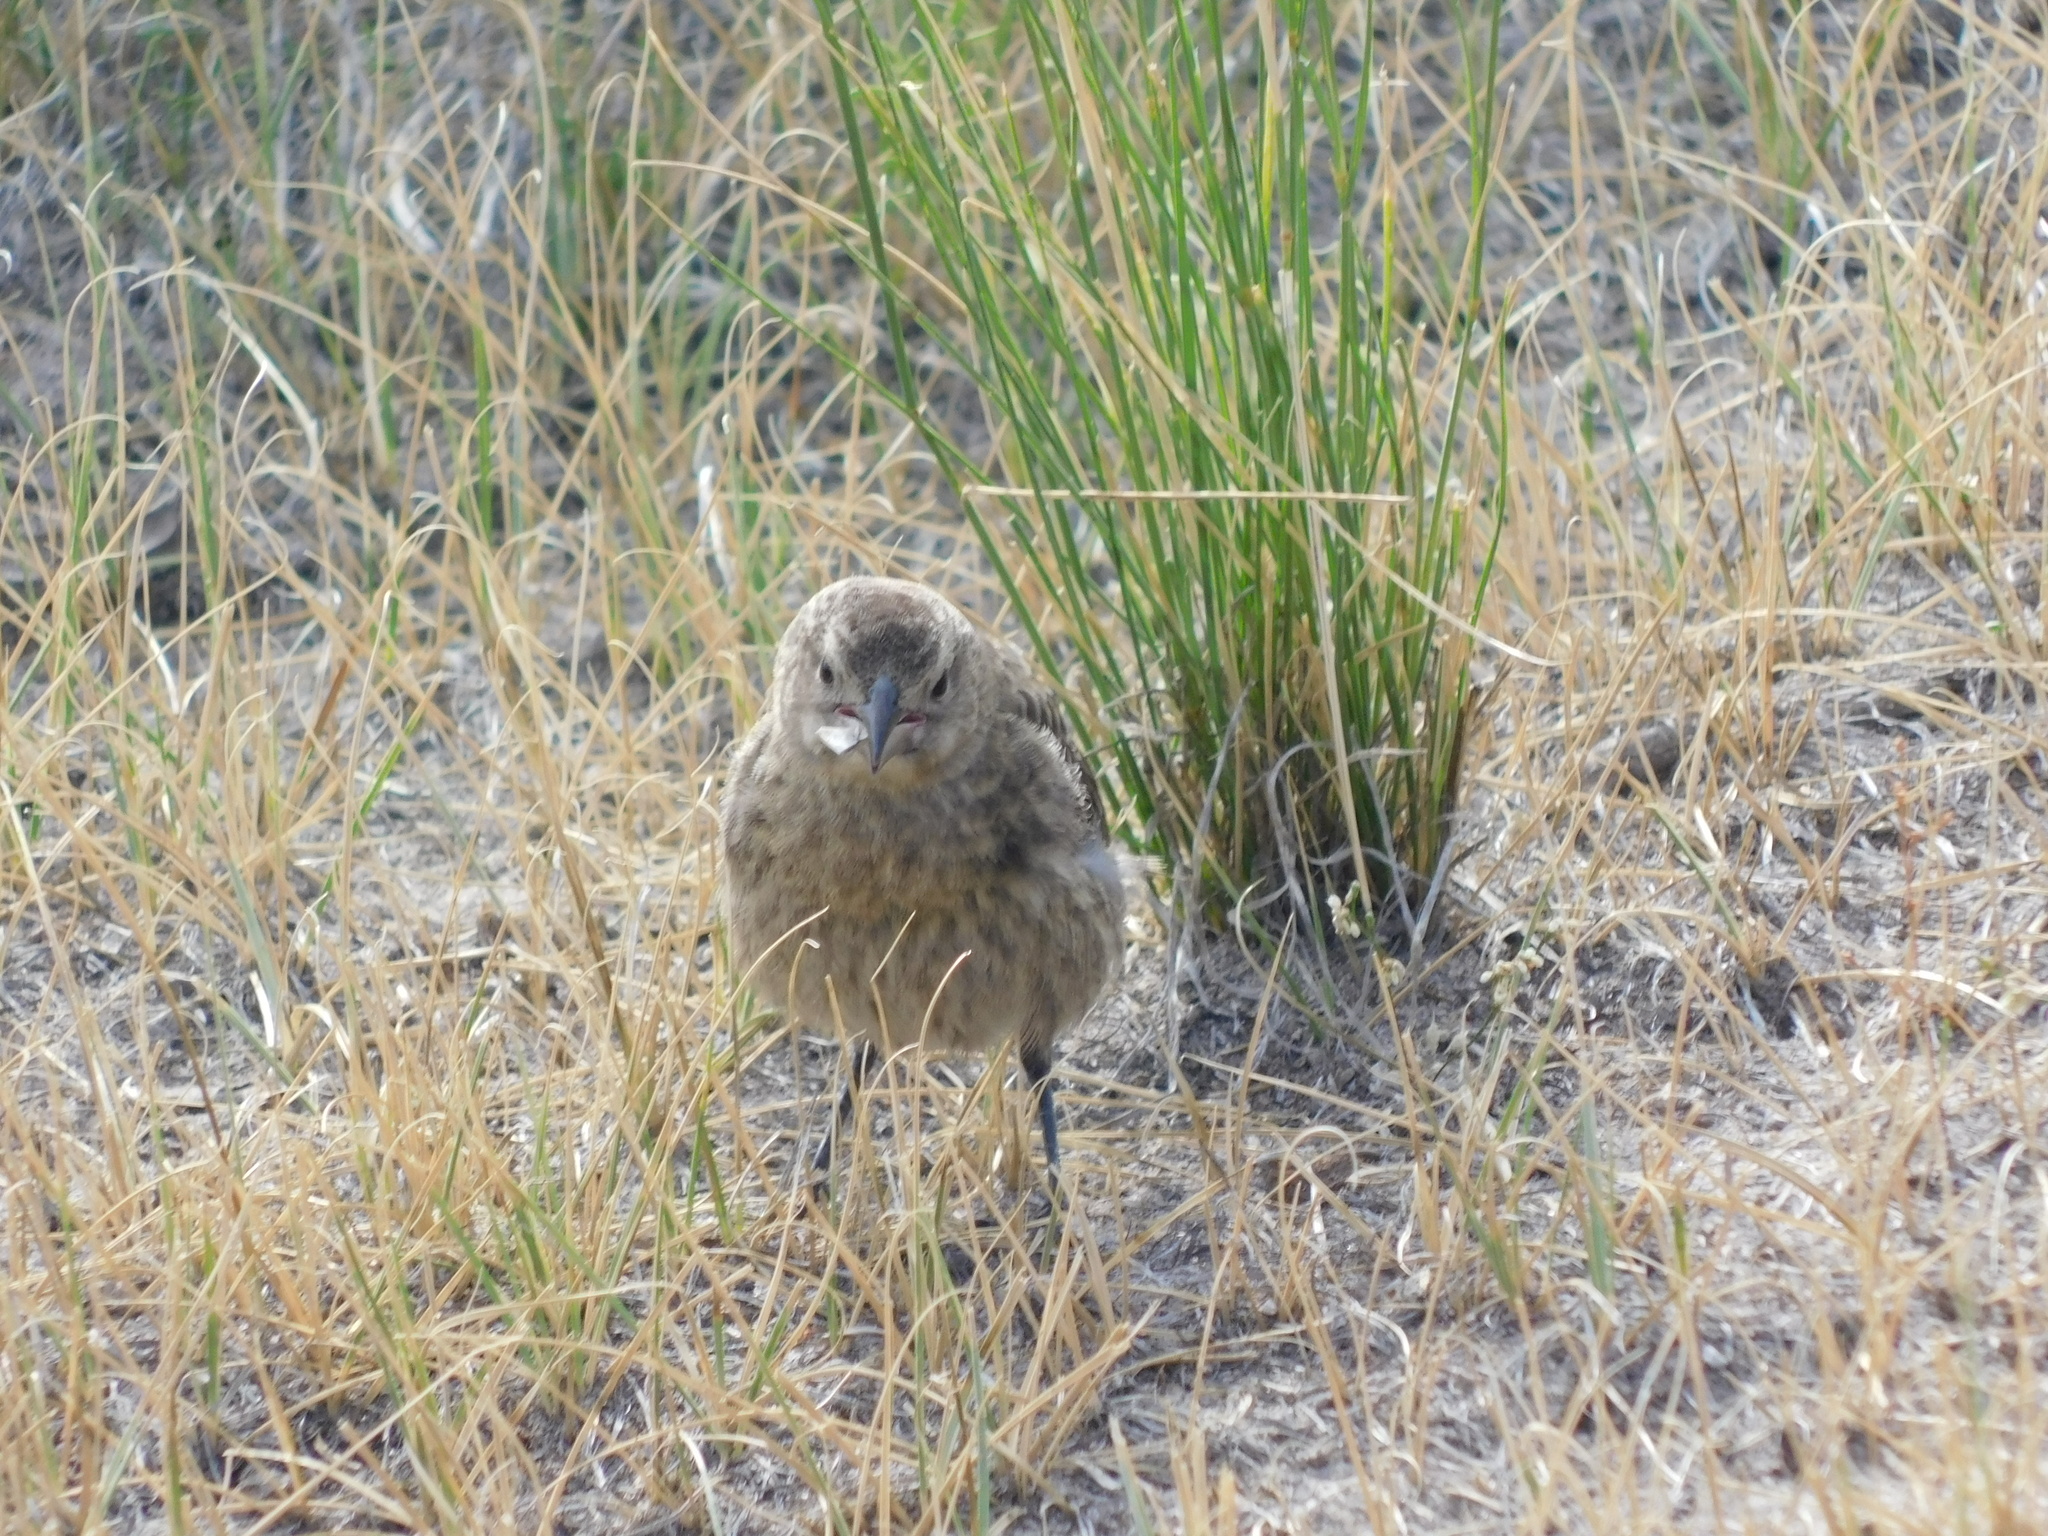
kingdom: Animalia
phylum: Chordata
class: Aves
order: Passeriformes
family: Icteridae
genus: Molothrus
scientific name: Molothrus ater
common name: Brown-headed cowbird
